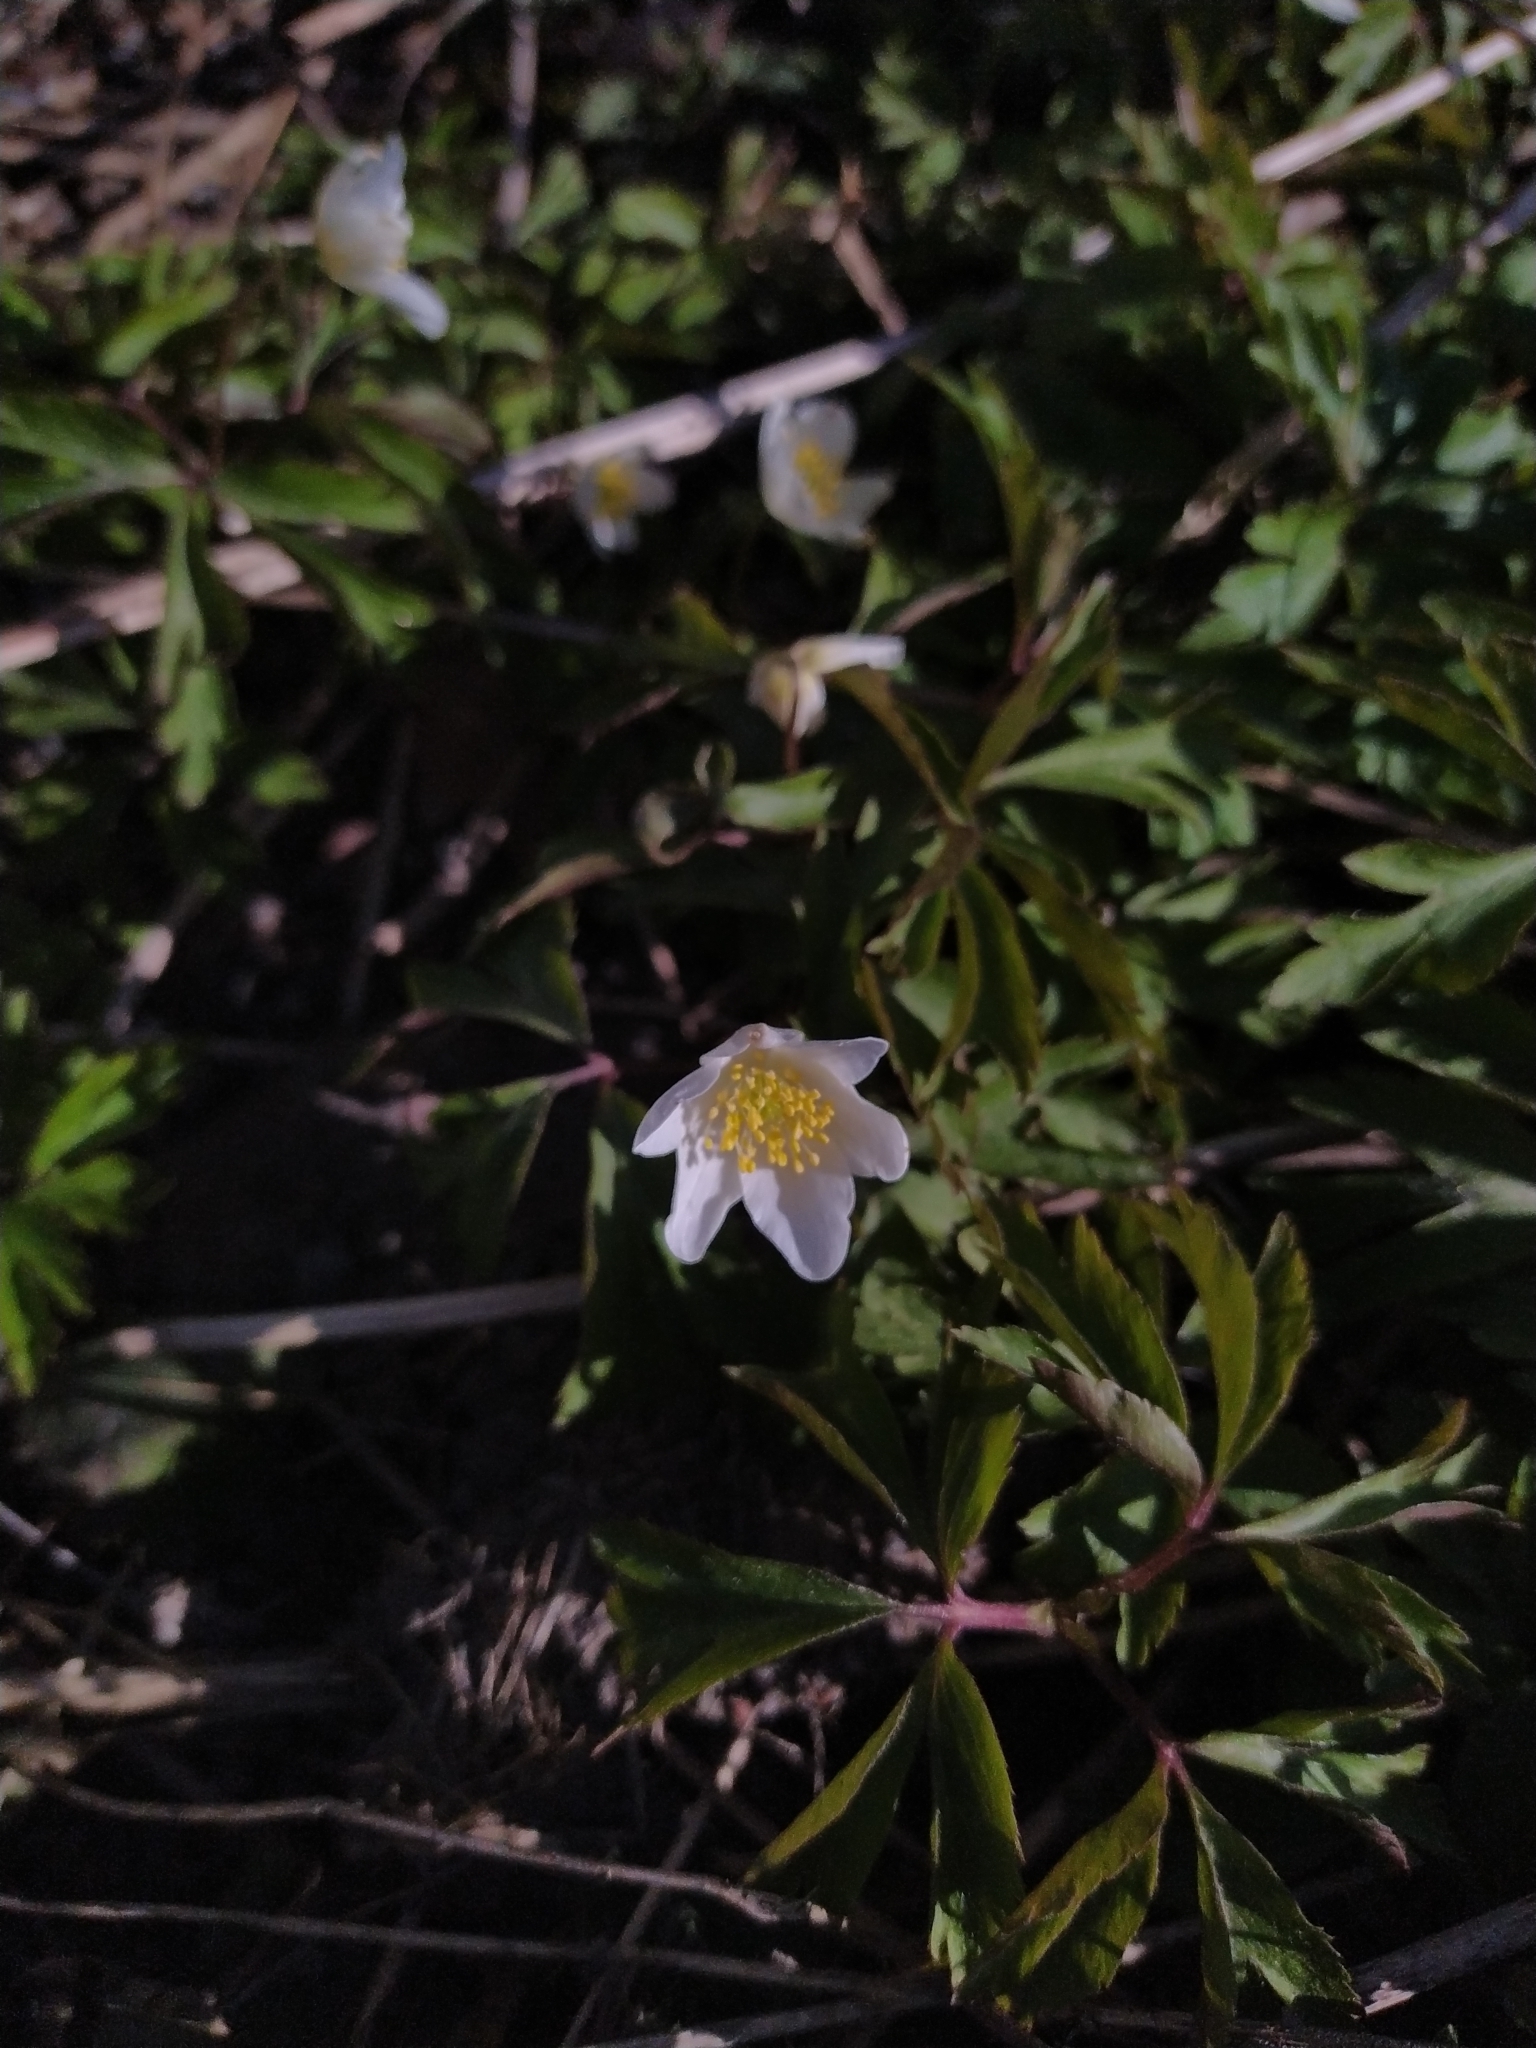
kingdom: Plantae
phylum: Tracheophyta
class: Magnoliopsida
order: Ranunculales
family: Ranunculaceae
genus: Anemone
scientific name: Anemone nemorosa
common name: Wood anemone
